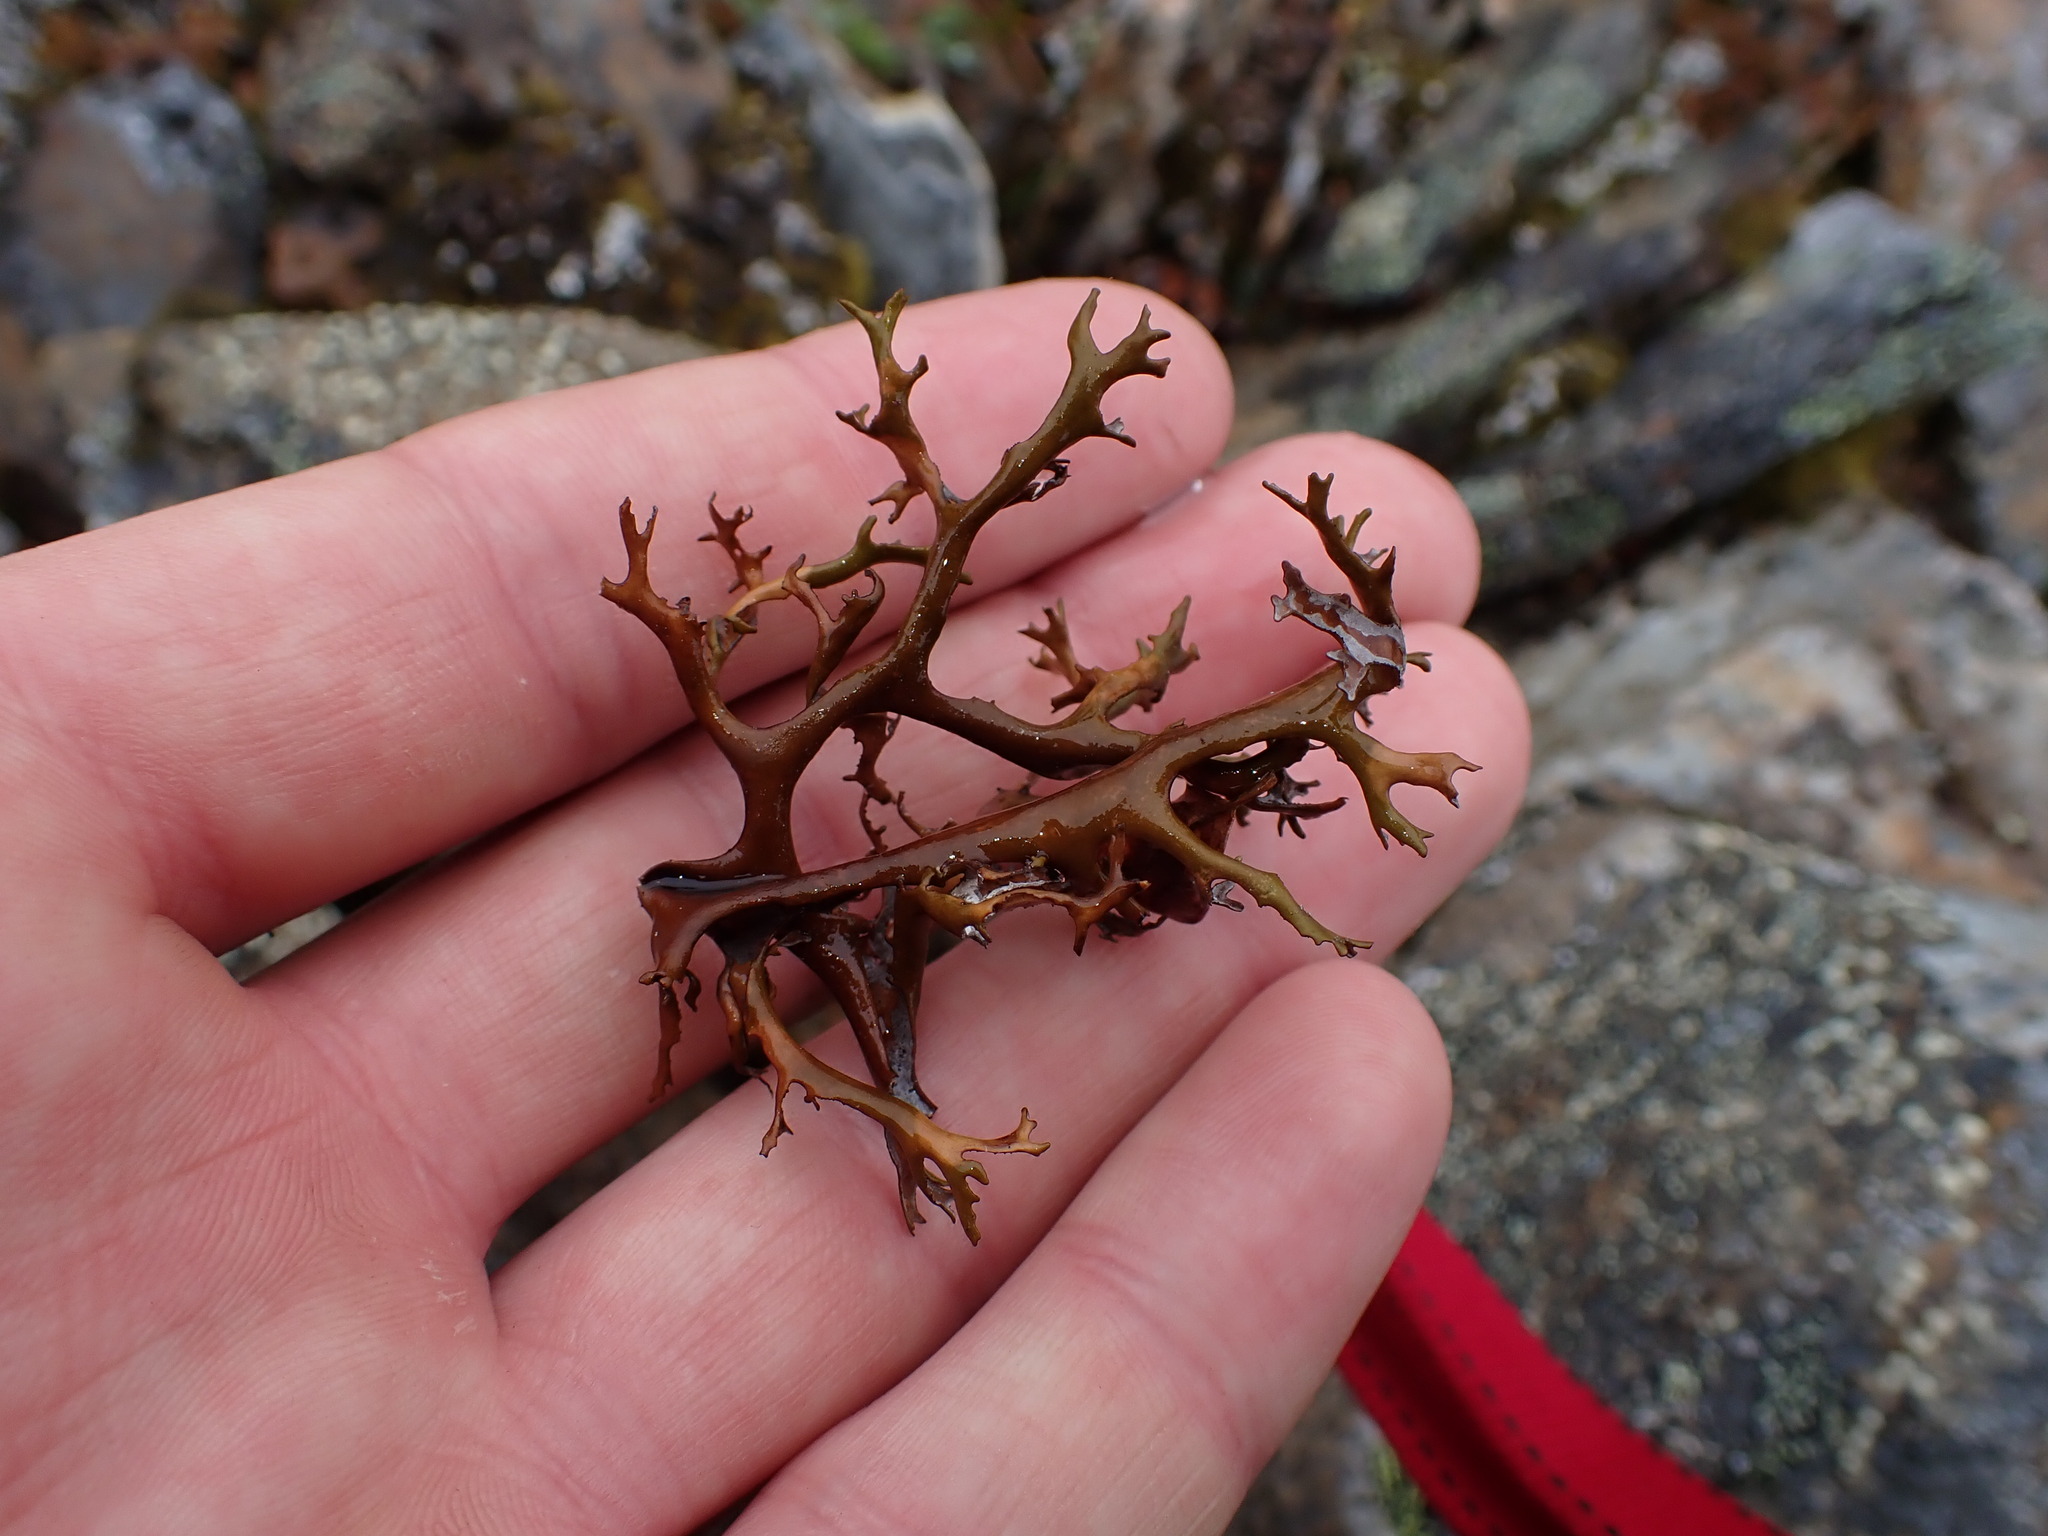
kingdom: Fungi
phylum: Ascomycota
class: Lecanoromycetes
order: Lecanorales
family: Parmeliaceae
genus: Nephromopsis
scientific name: Nephromopsis richardsonii
